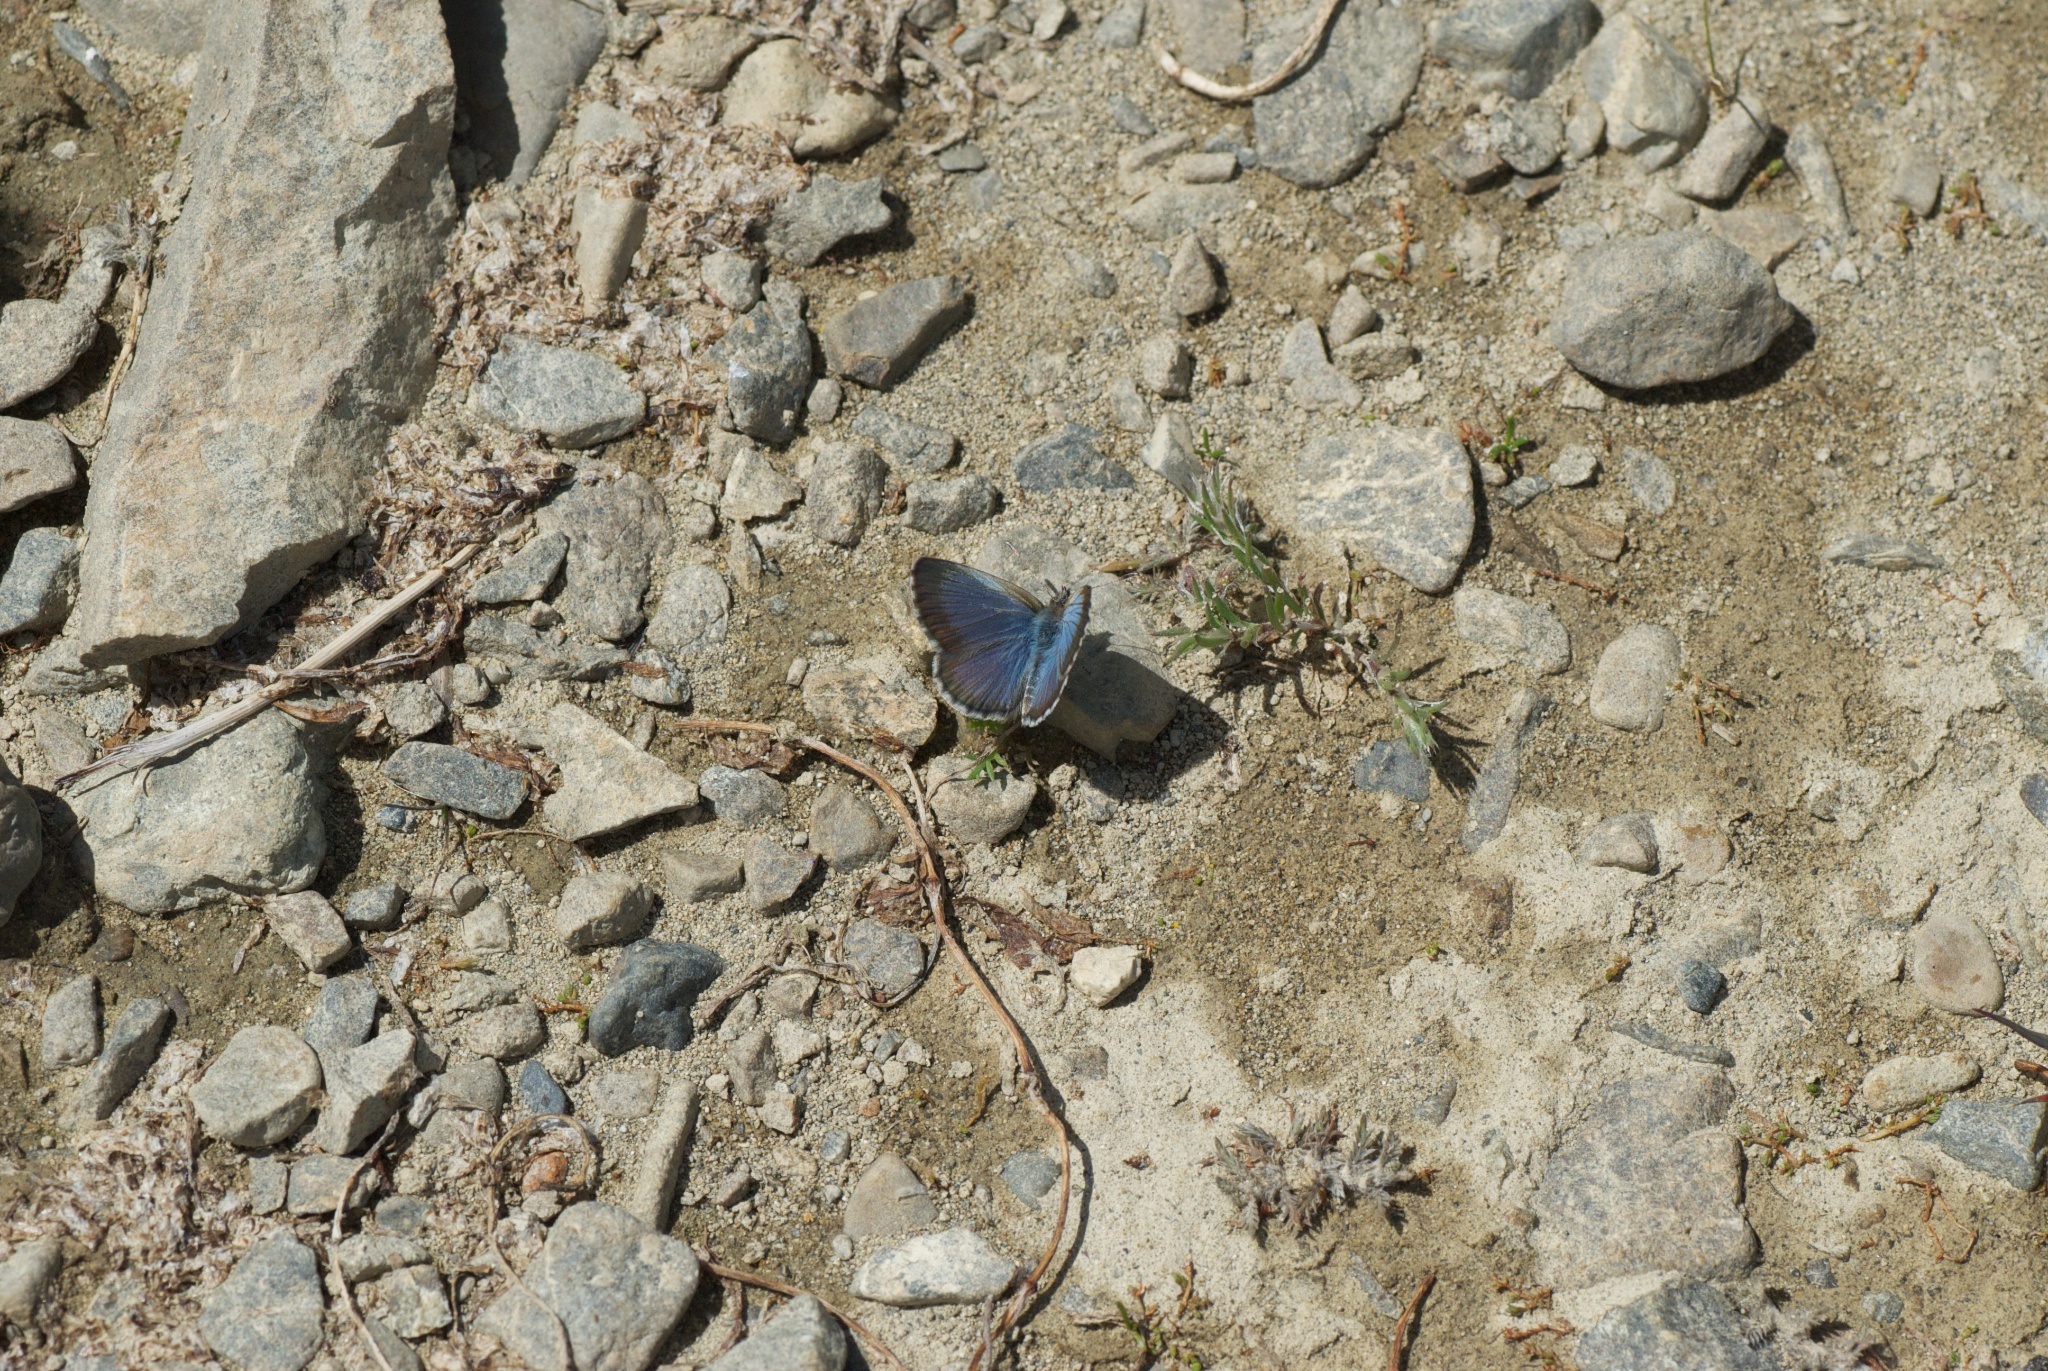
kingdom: Animalia
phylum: Arthropoda
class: Insecta
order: Lepidoptera
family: Lycaenidae
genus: Zizina
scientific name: Zizina oxleyi
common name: Southern blue
